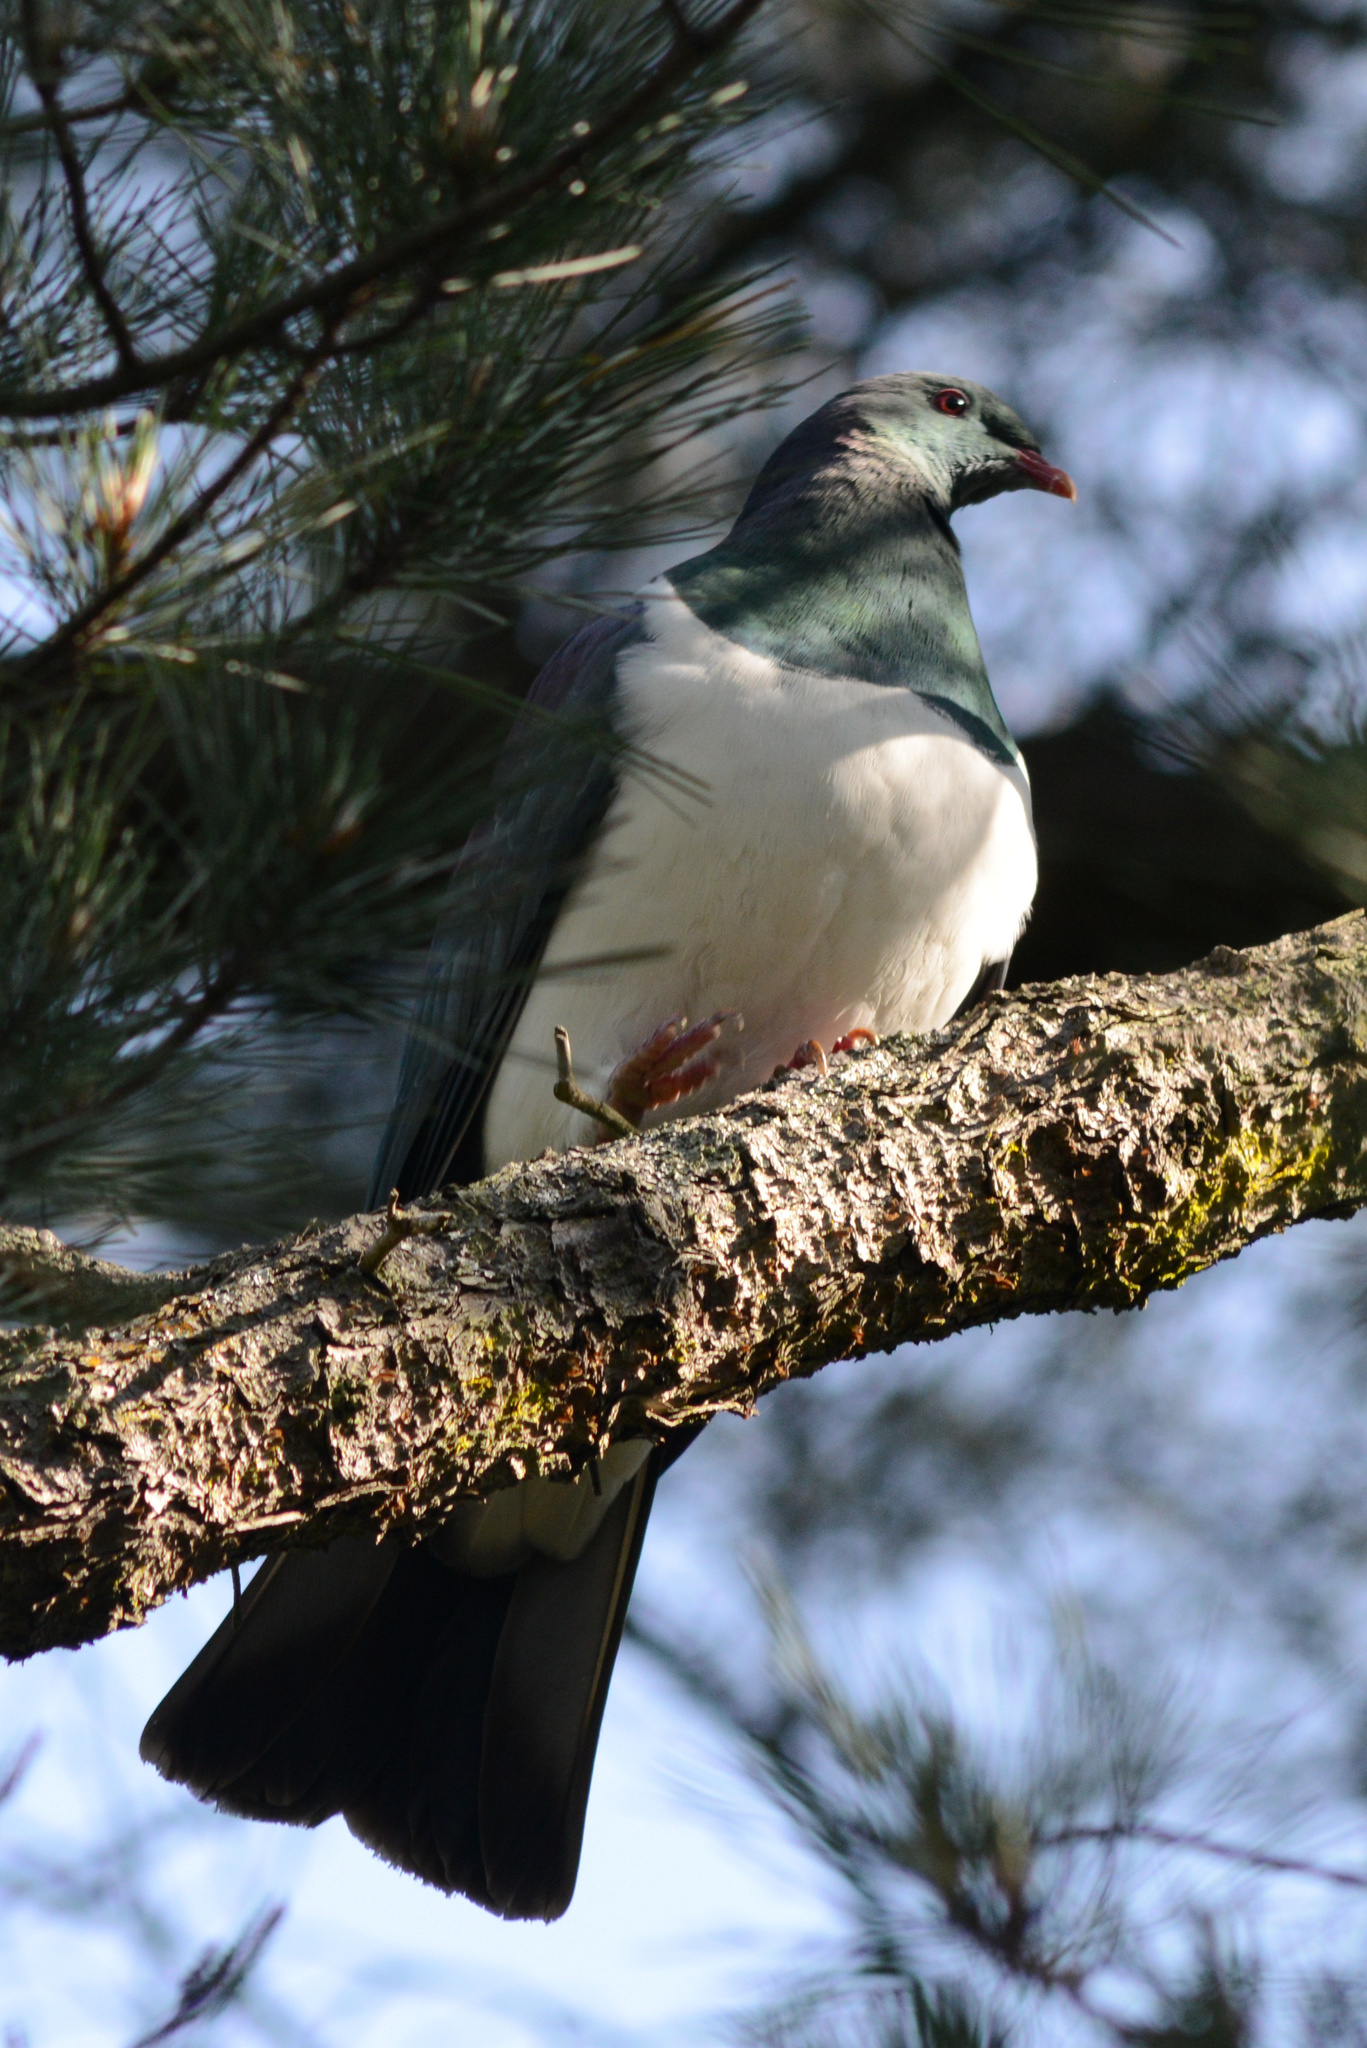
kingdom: Animalia
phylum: Chordata
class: Aves
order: Columbiformes
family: Columbidae
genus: Hemiphaga
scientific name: Hemiphaga novaeseelandiae
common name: New zealand pigeon
